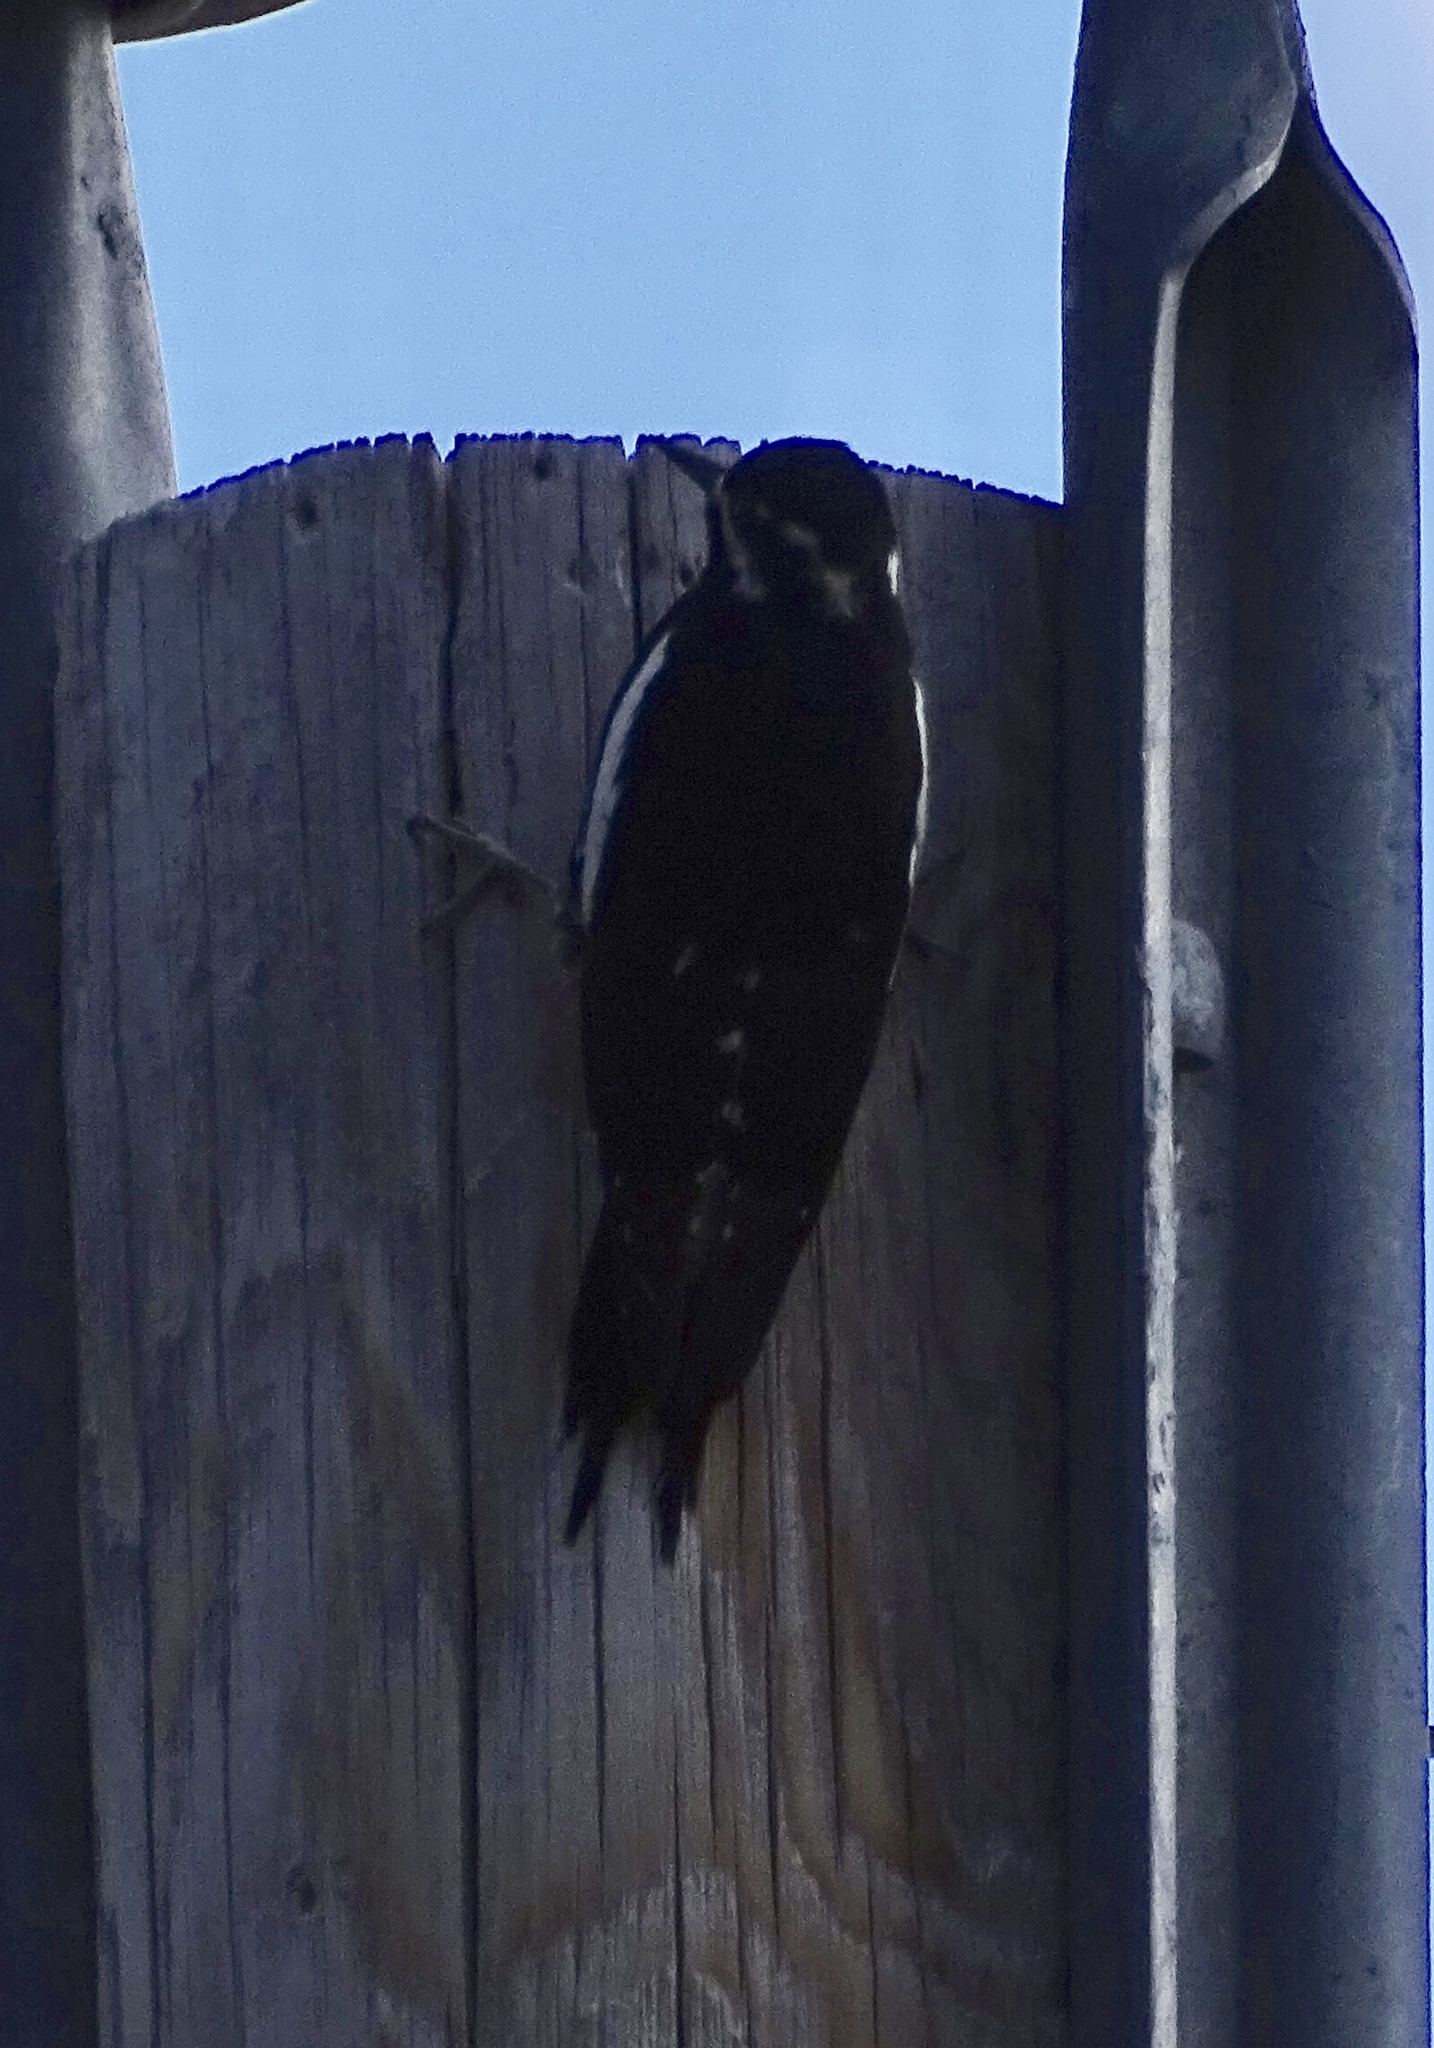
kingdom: Animalia
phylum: Chordata
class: Aves
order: Piciformes
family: Picidae
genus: Sphyrapicus
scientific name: Sphyrapicus thyroideus
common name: Williamson's sapsucker
